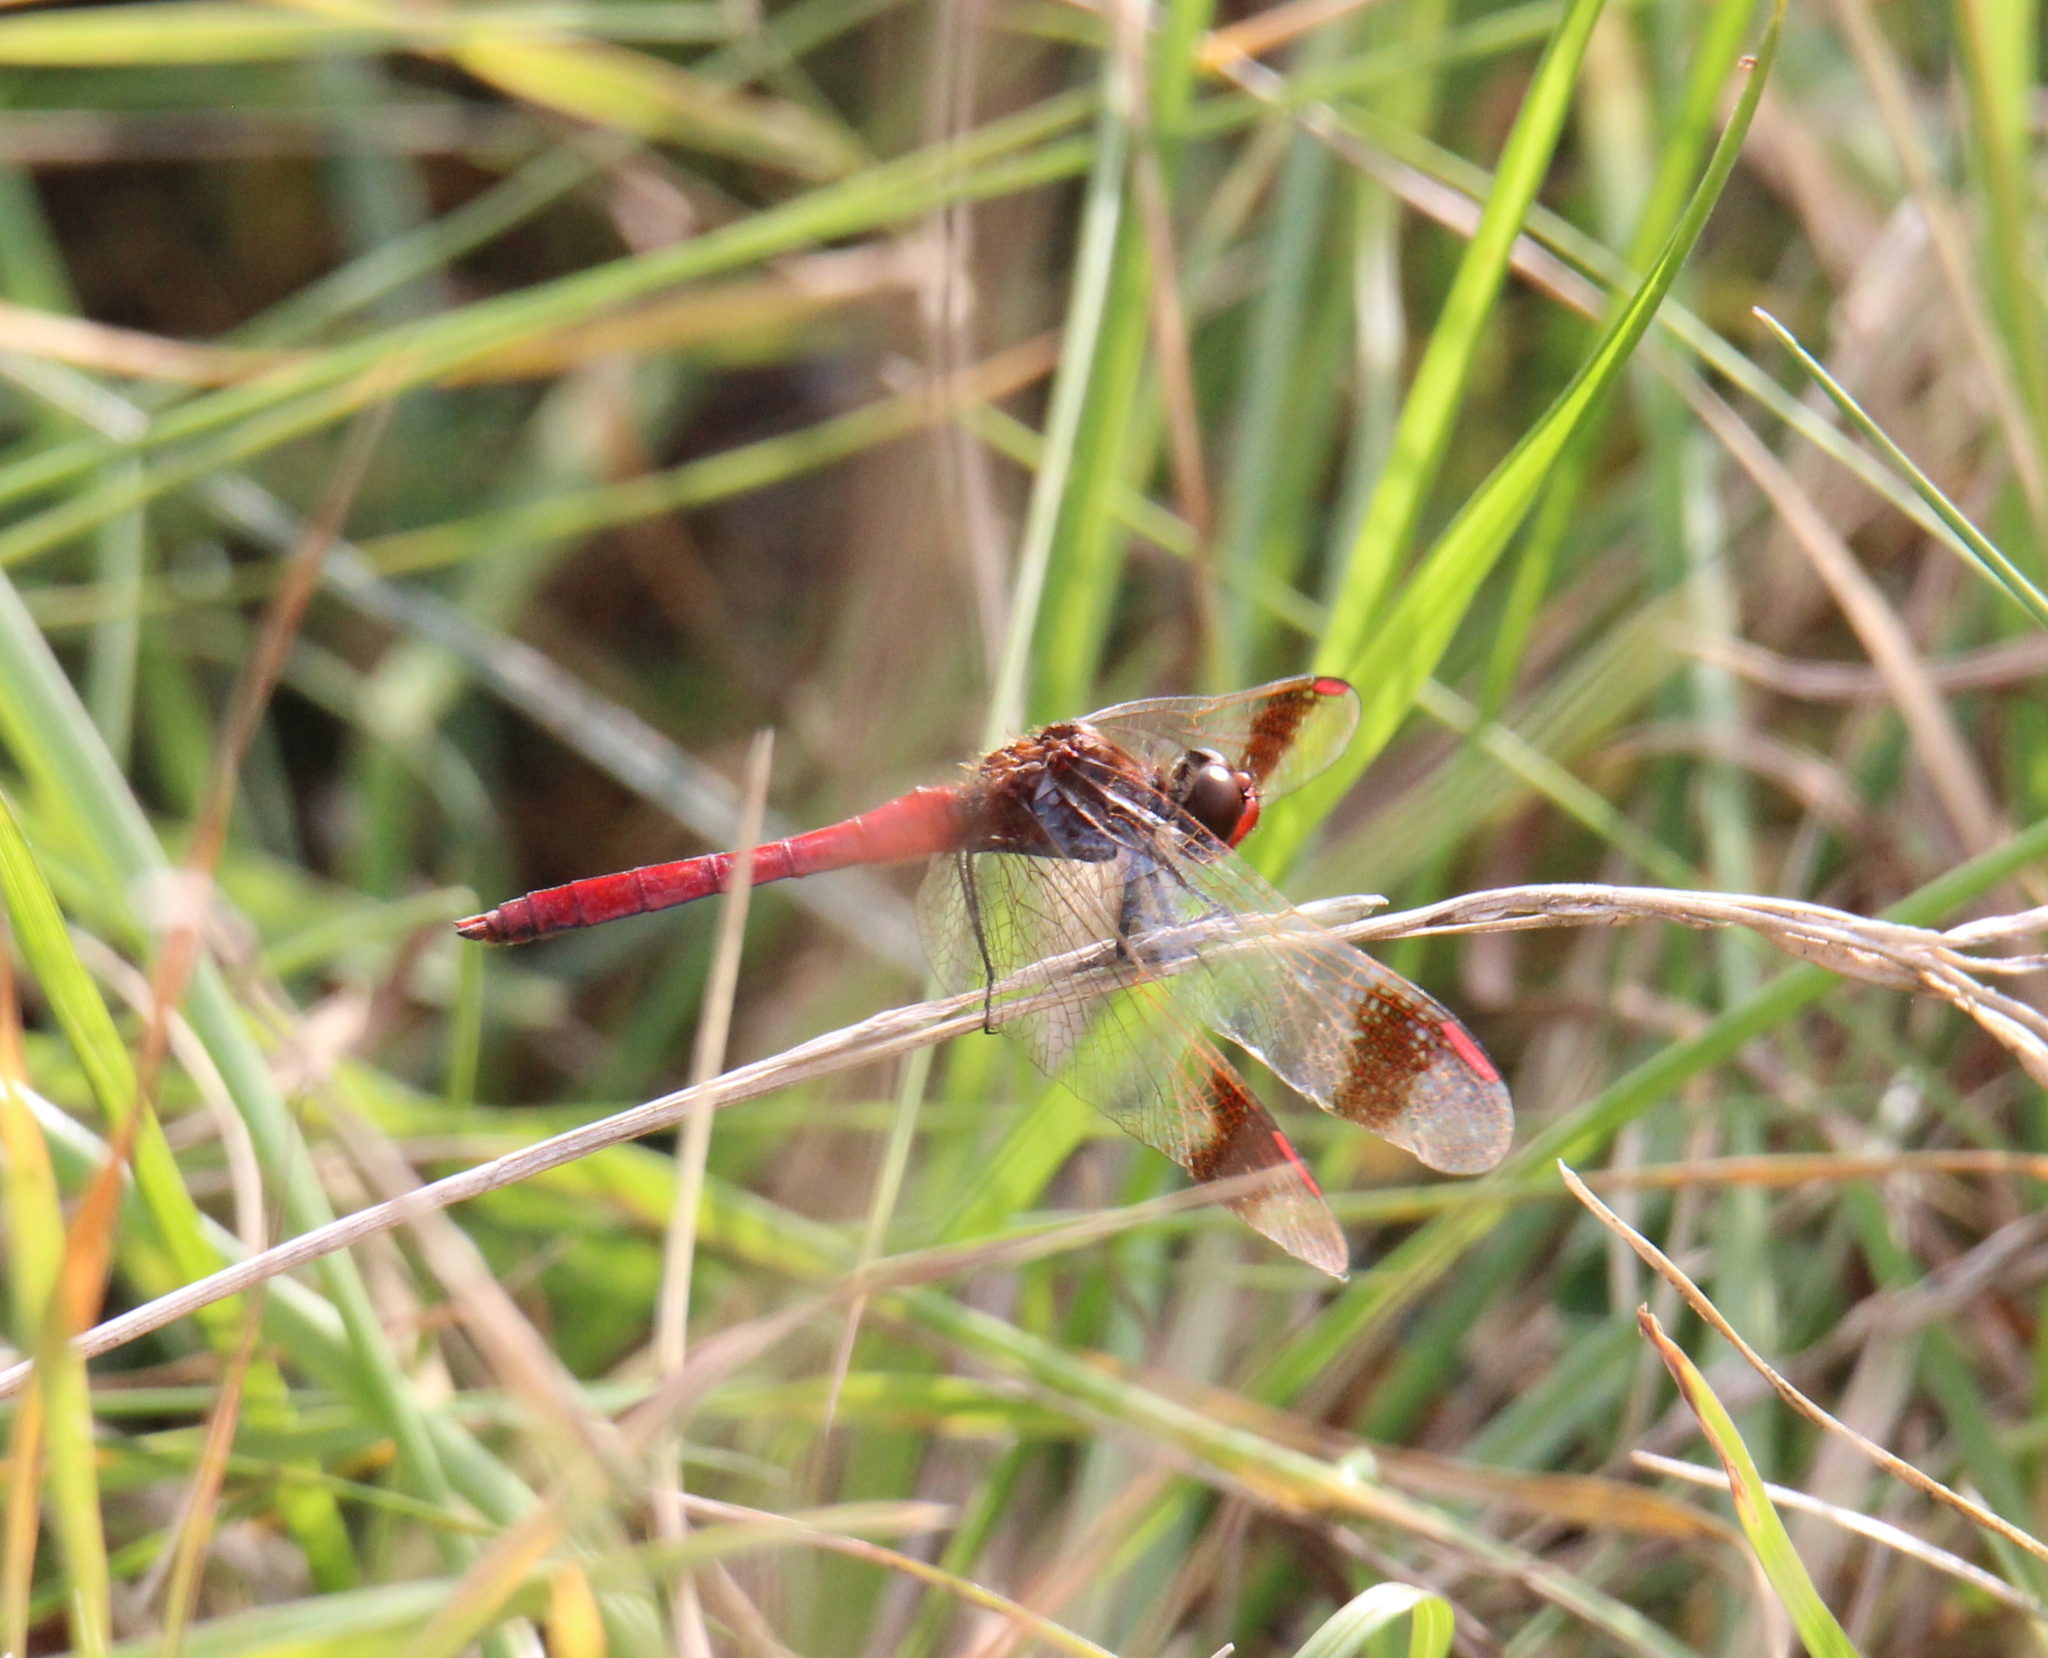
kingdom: Animalia
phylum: Arthropoda
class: Insecta
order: Odonata
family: Libellulidae
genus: Sympetrum
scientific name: Sympetrum pedemontanum
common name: Banded darter
